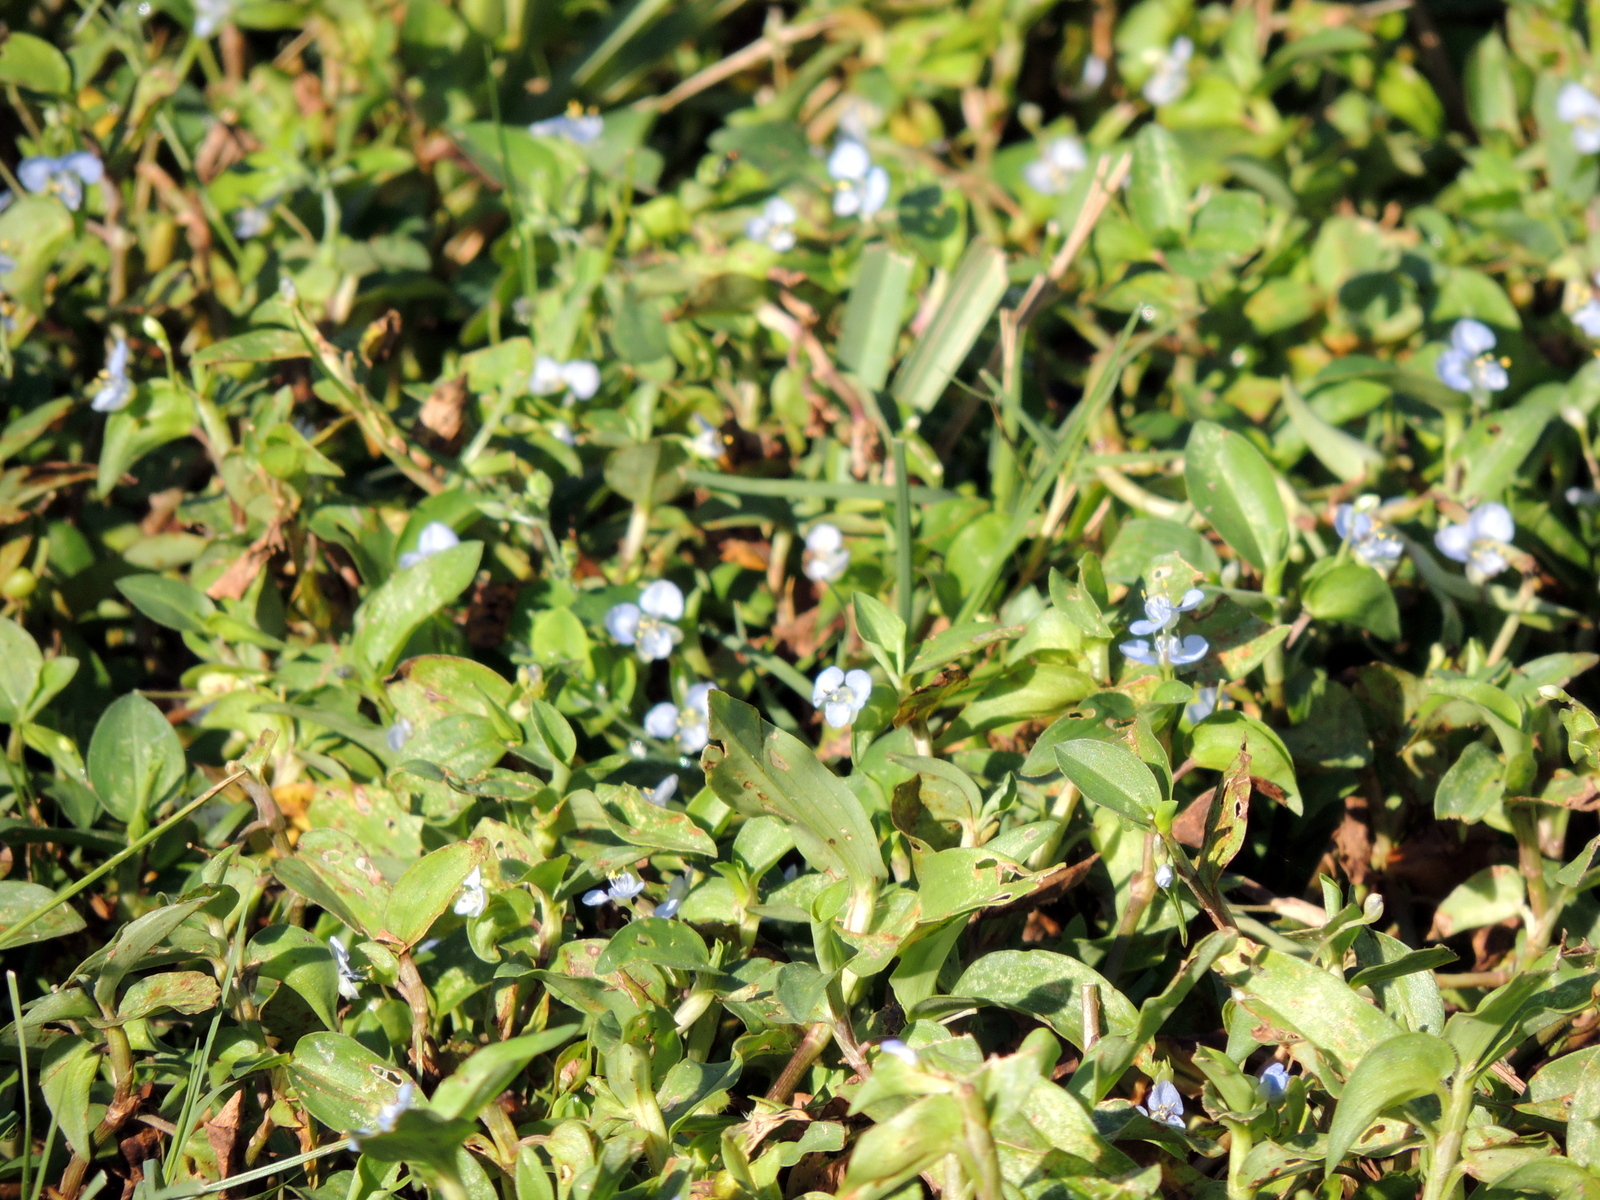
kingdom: Plantae
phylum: Tracheophyta
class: Liliopsida
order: Commelinales
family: Commelinaceae
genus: Commelina
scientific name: Commelina diffusa
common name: Climbing dayflower
